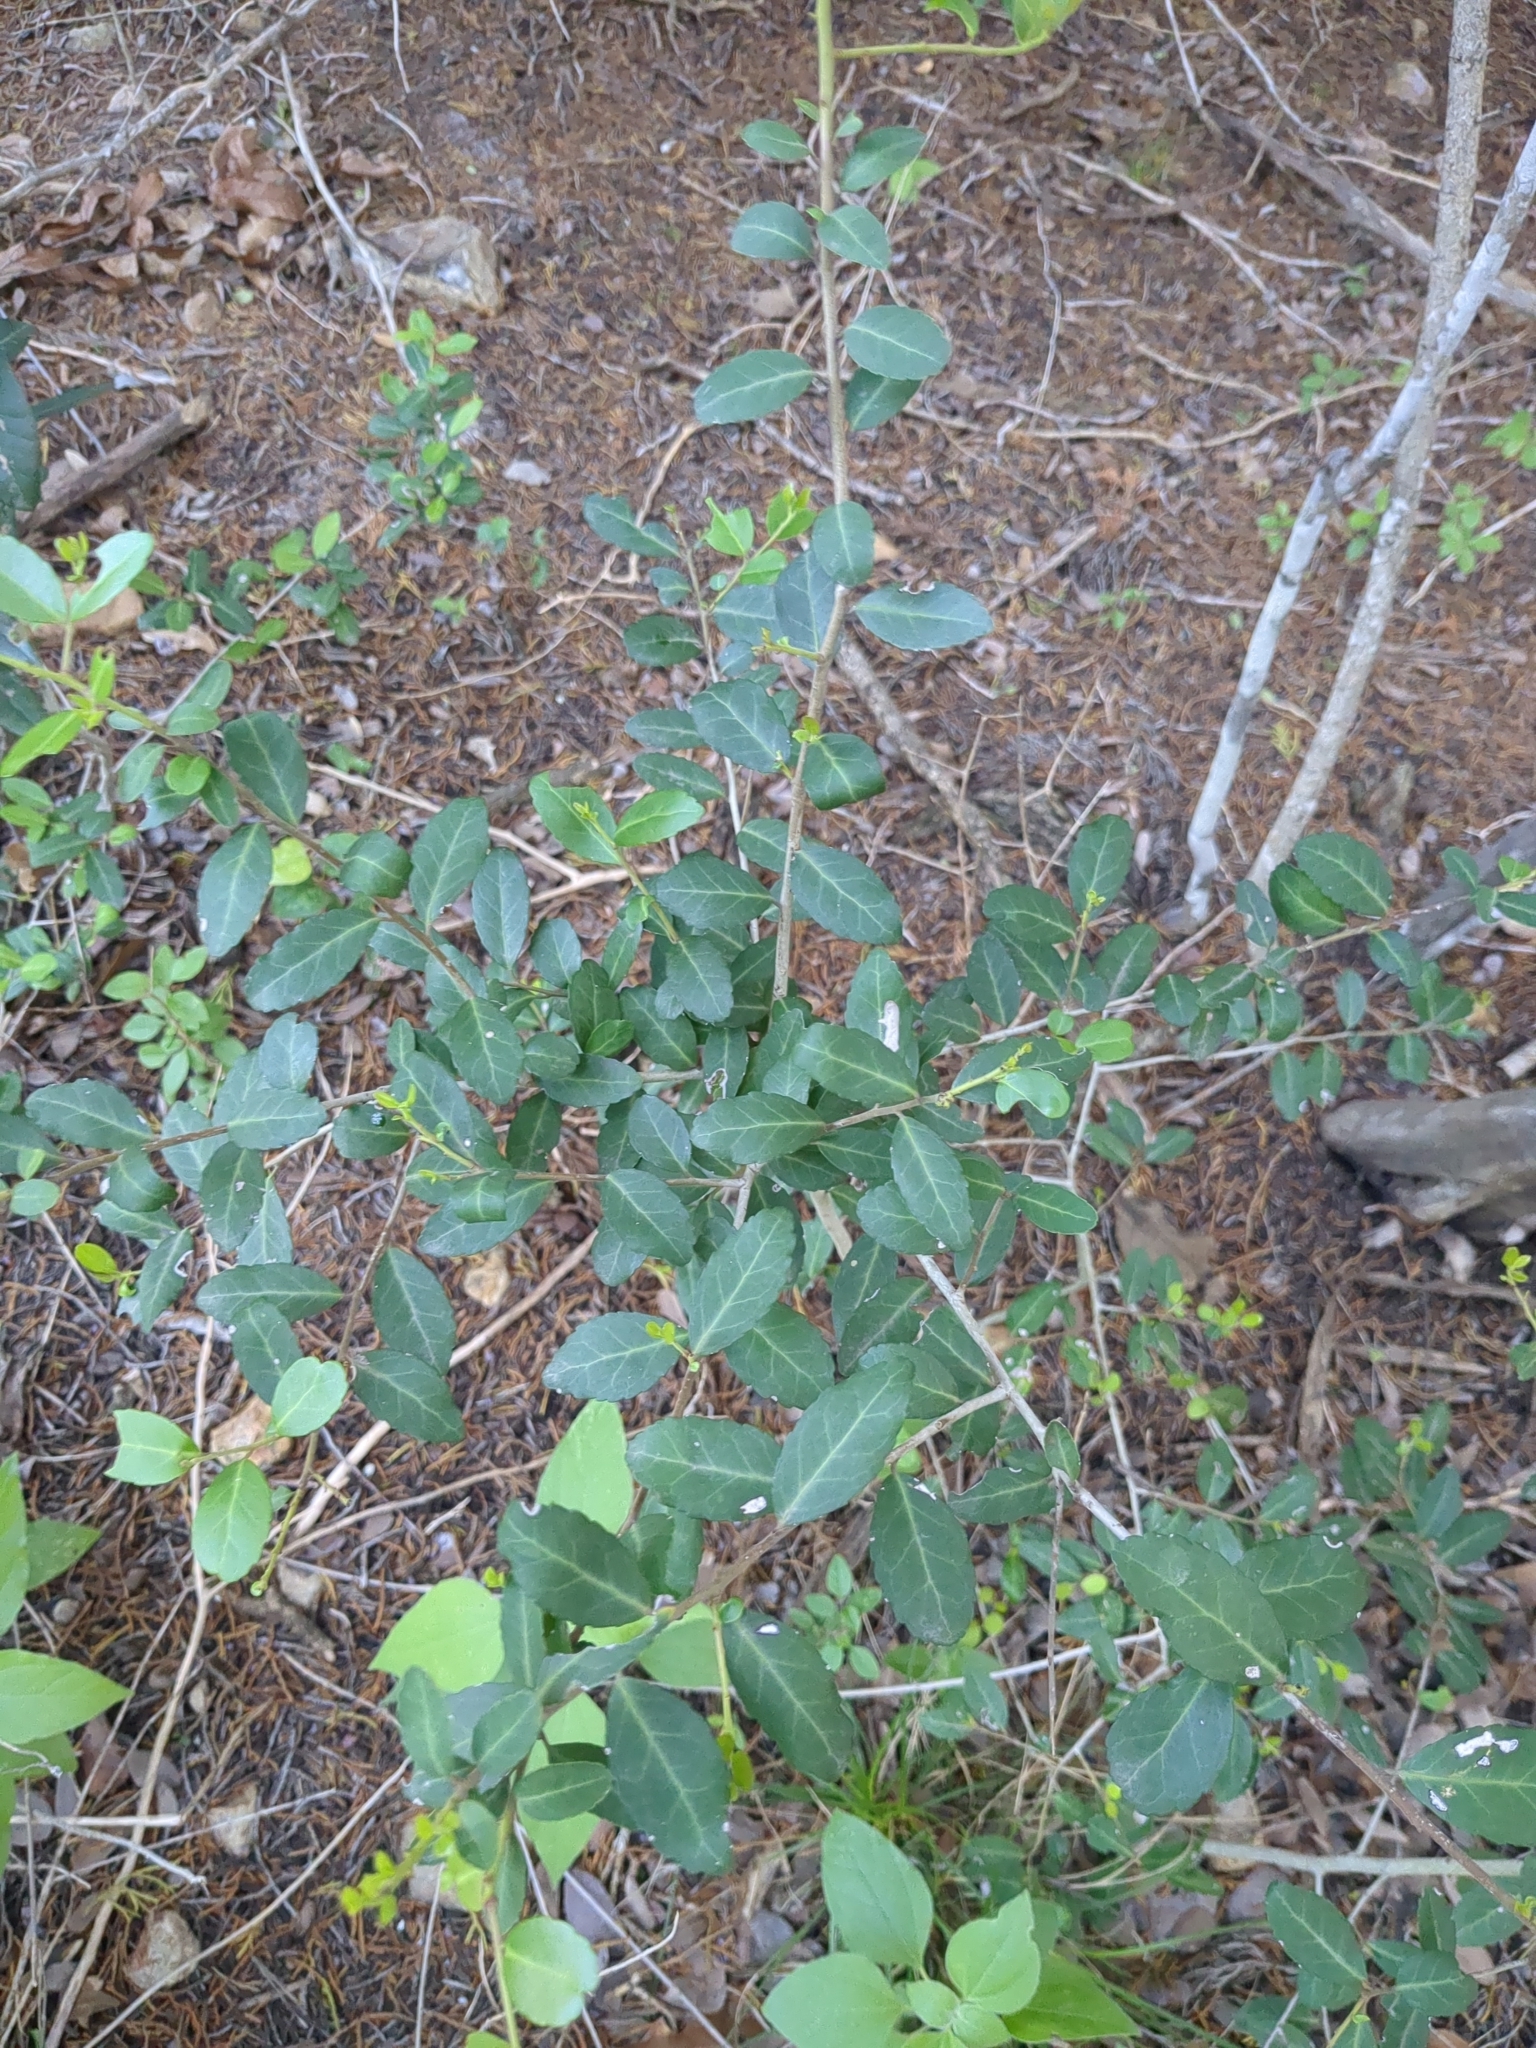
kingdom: Plantae
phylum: Tracheophyta
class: Magnoliopsida
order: Aquifoliales
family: Aquifoliaceae
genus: Ilex
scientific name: Ilex vomitoria
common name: Yaupon holly
